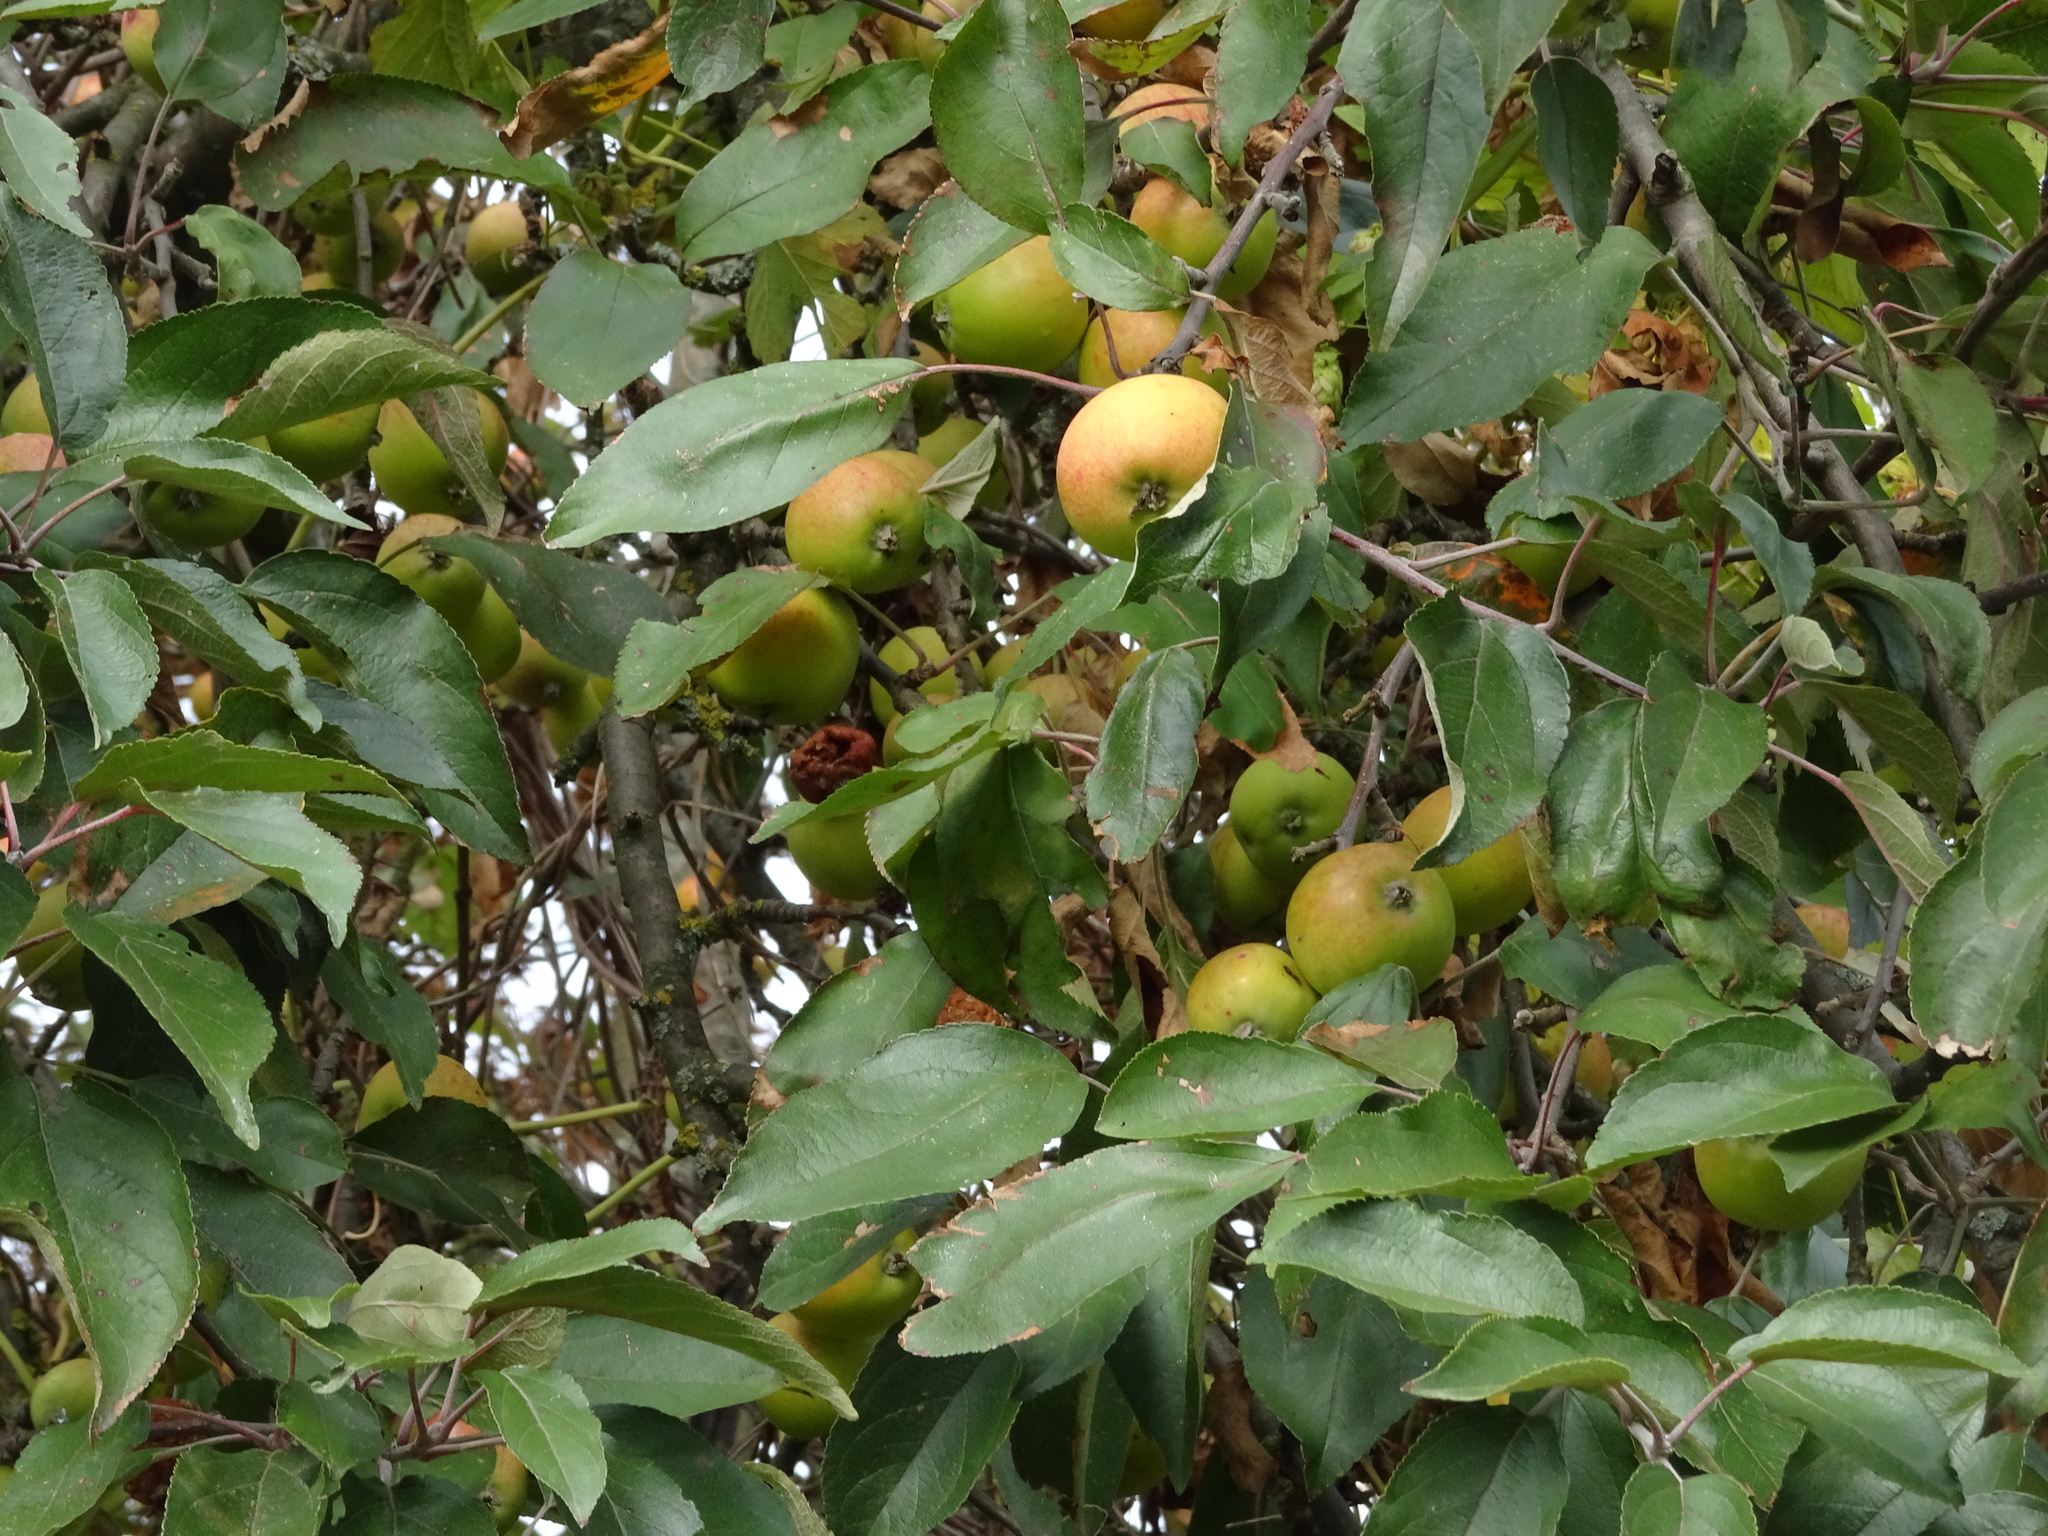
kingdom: Plantae
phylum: Tracheophyta
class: Magnoliopsida
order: Rosales
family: Rosaceae
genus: Malus
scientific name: Malus domestica
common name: Apple
